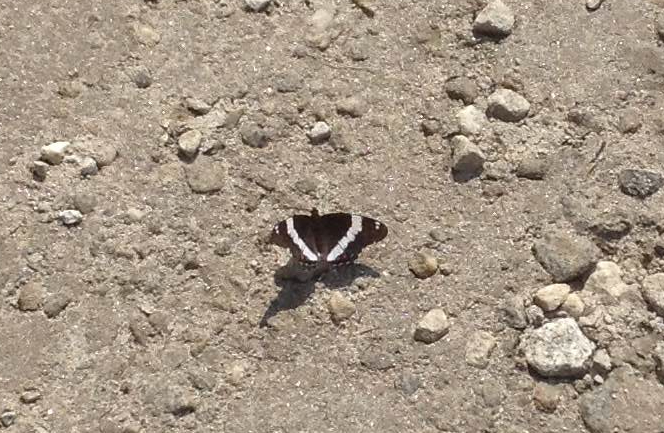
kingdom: Animalia
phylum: Arthropoda
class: Insecta
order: Lepidoptera
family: Nymphalidae
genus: Limenitis
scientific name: Limenitis arthemis
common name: Red-spotted admiral
